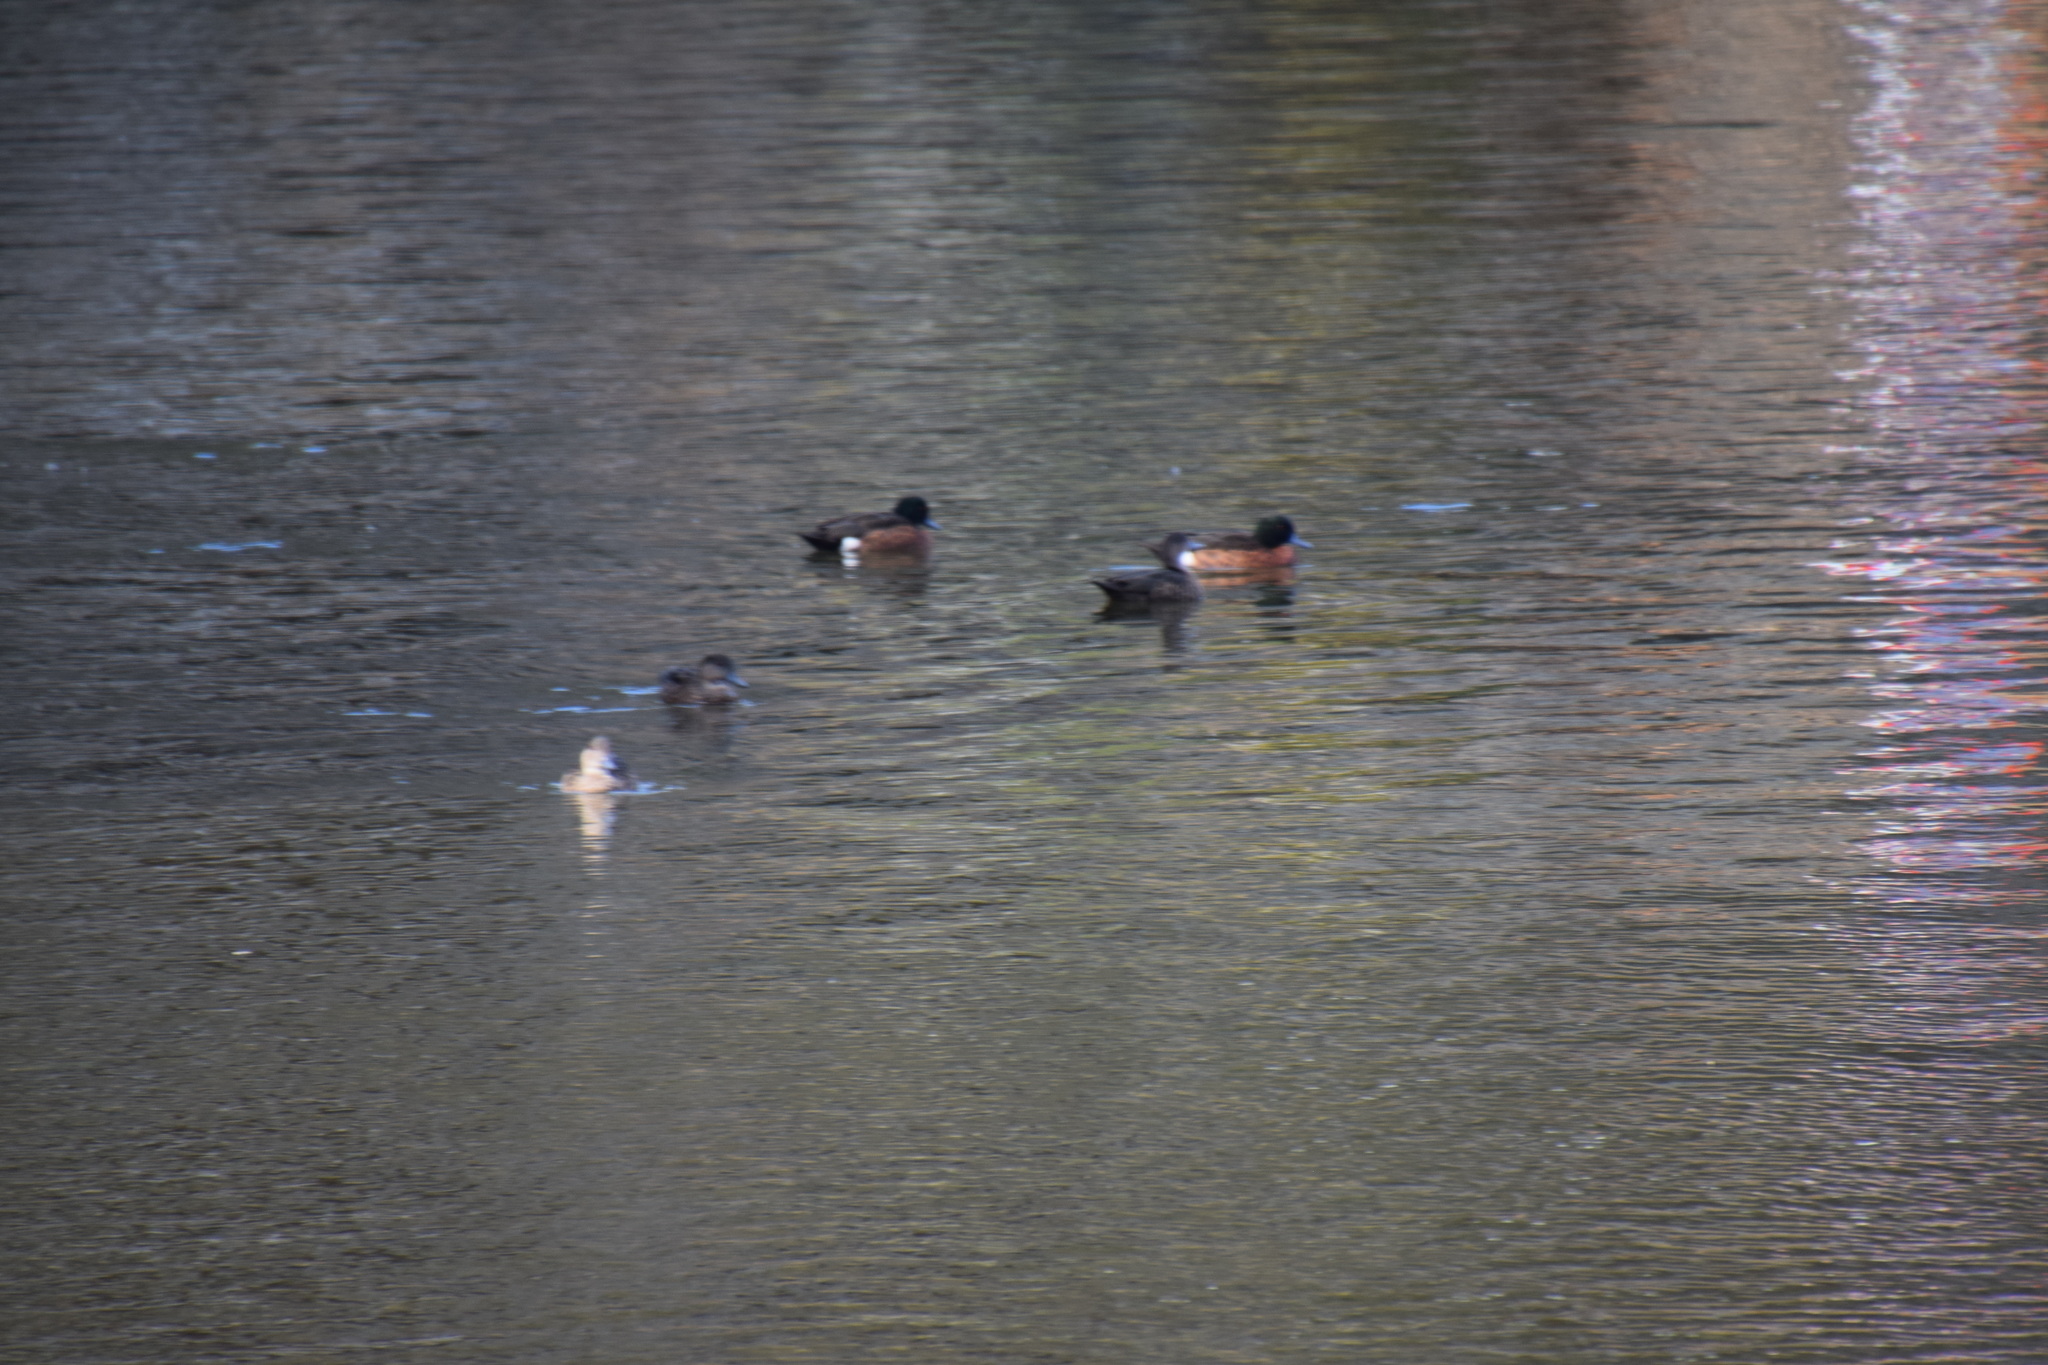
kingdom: Animalia
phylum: Chordata
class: Aves
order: Anseriformes
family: Anatidae
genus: Anas
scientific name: Anas castanea
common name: Chestnut teal
